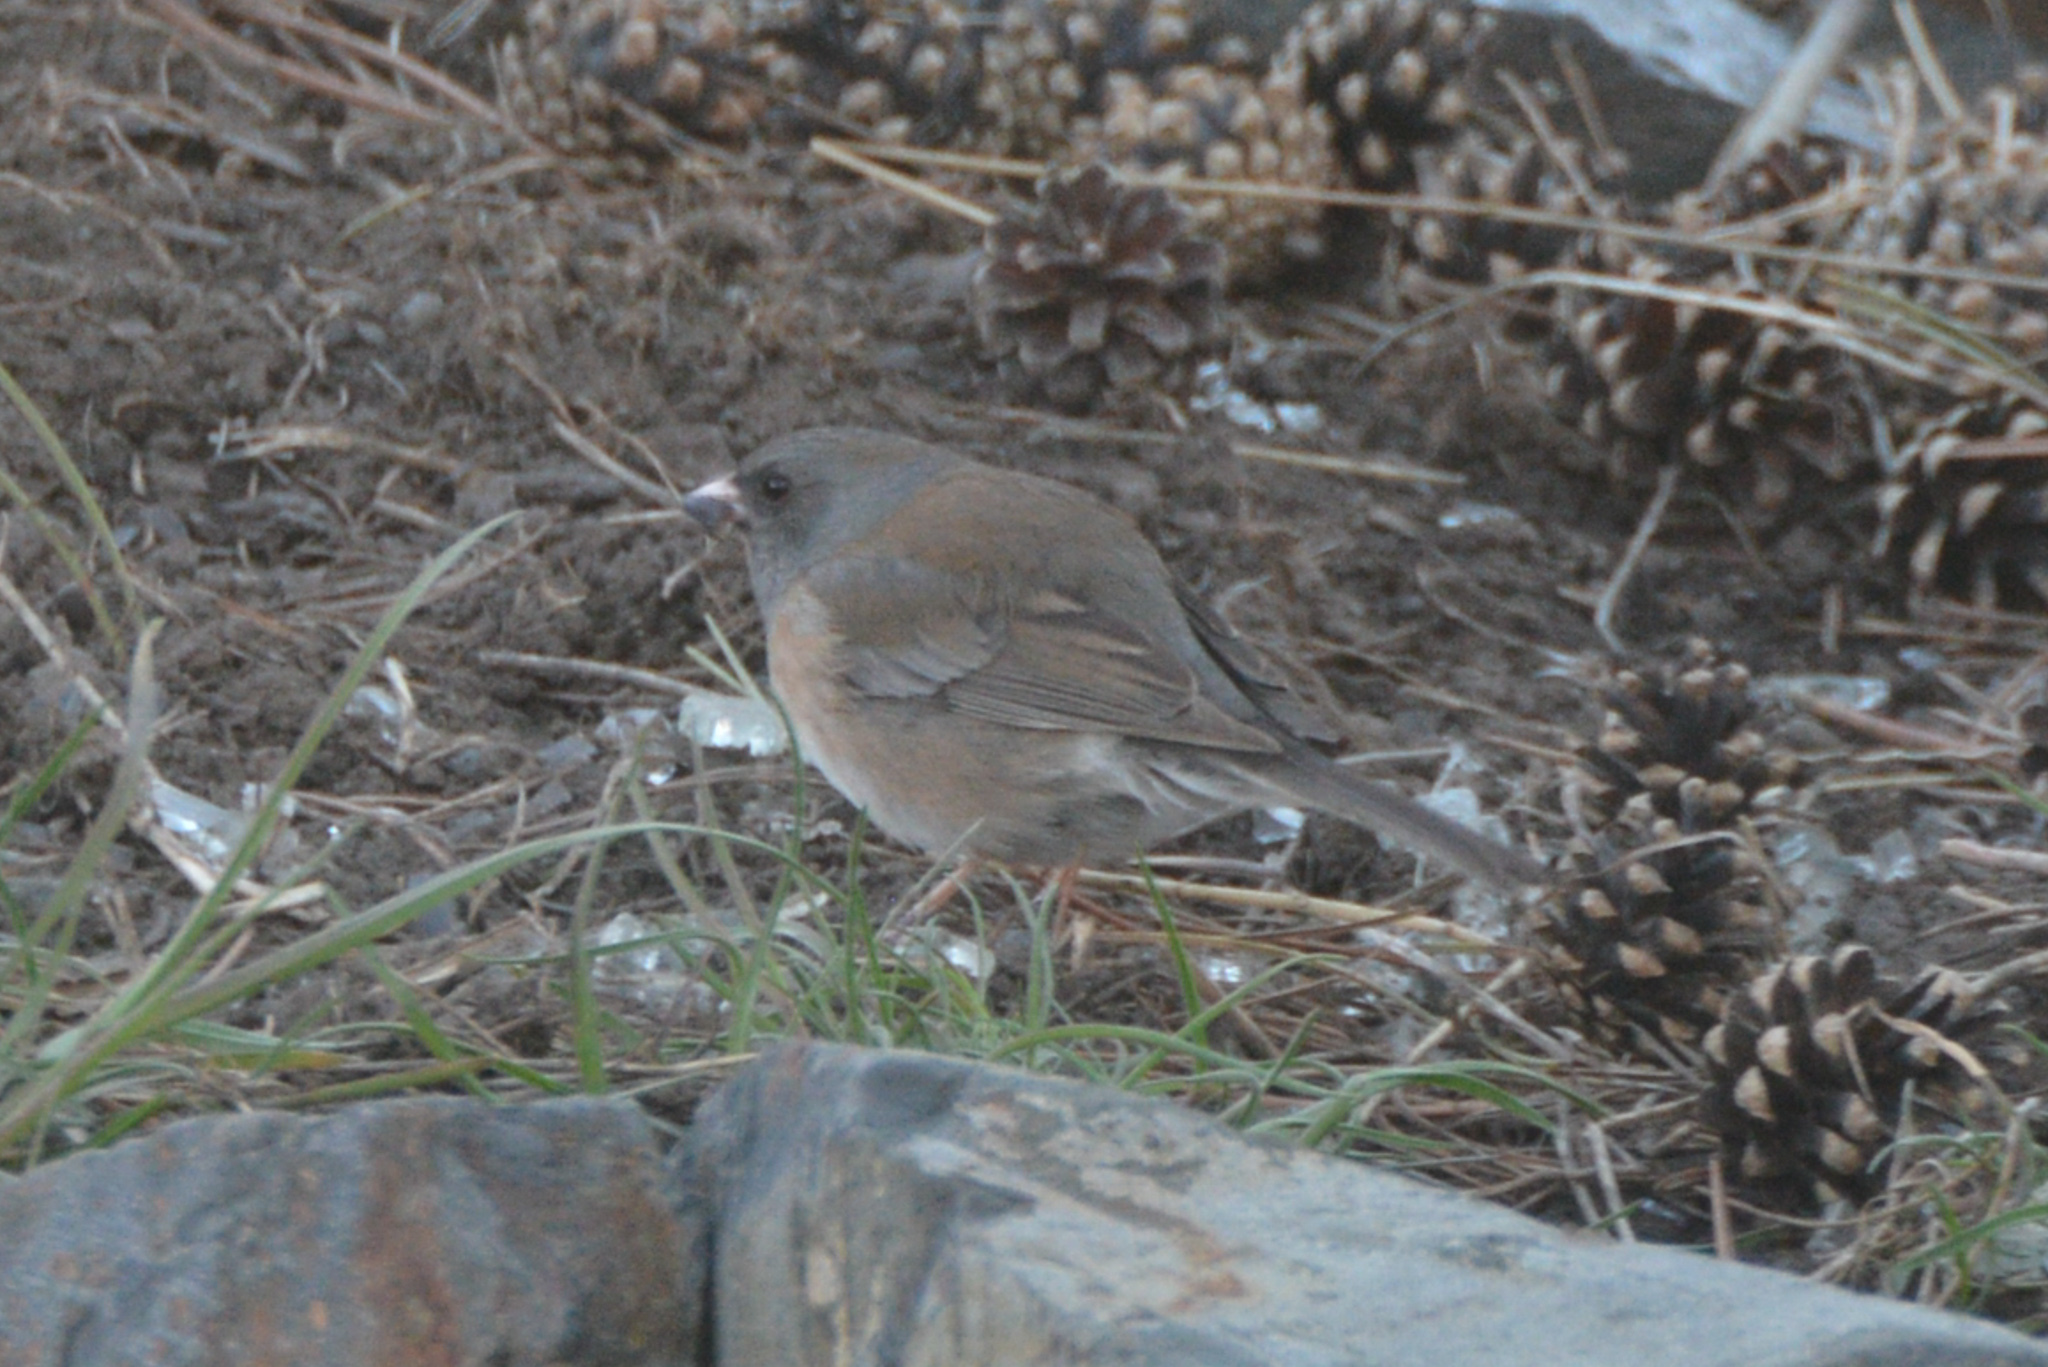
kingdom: Animalia
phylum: Chordata
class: Aves
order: Passeriformes
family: Passerellidae
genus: Junco
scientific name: Junco hyemalis
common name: Dark-eyed junco
